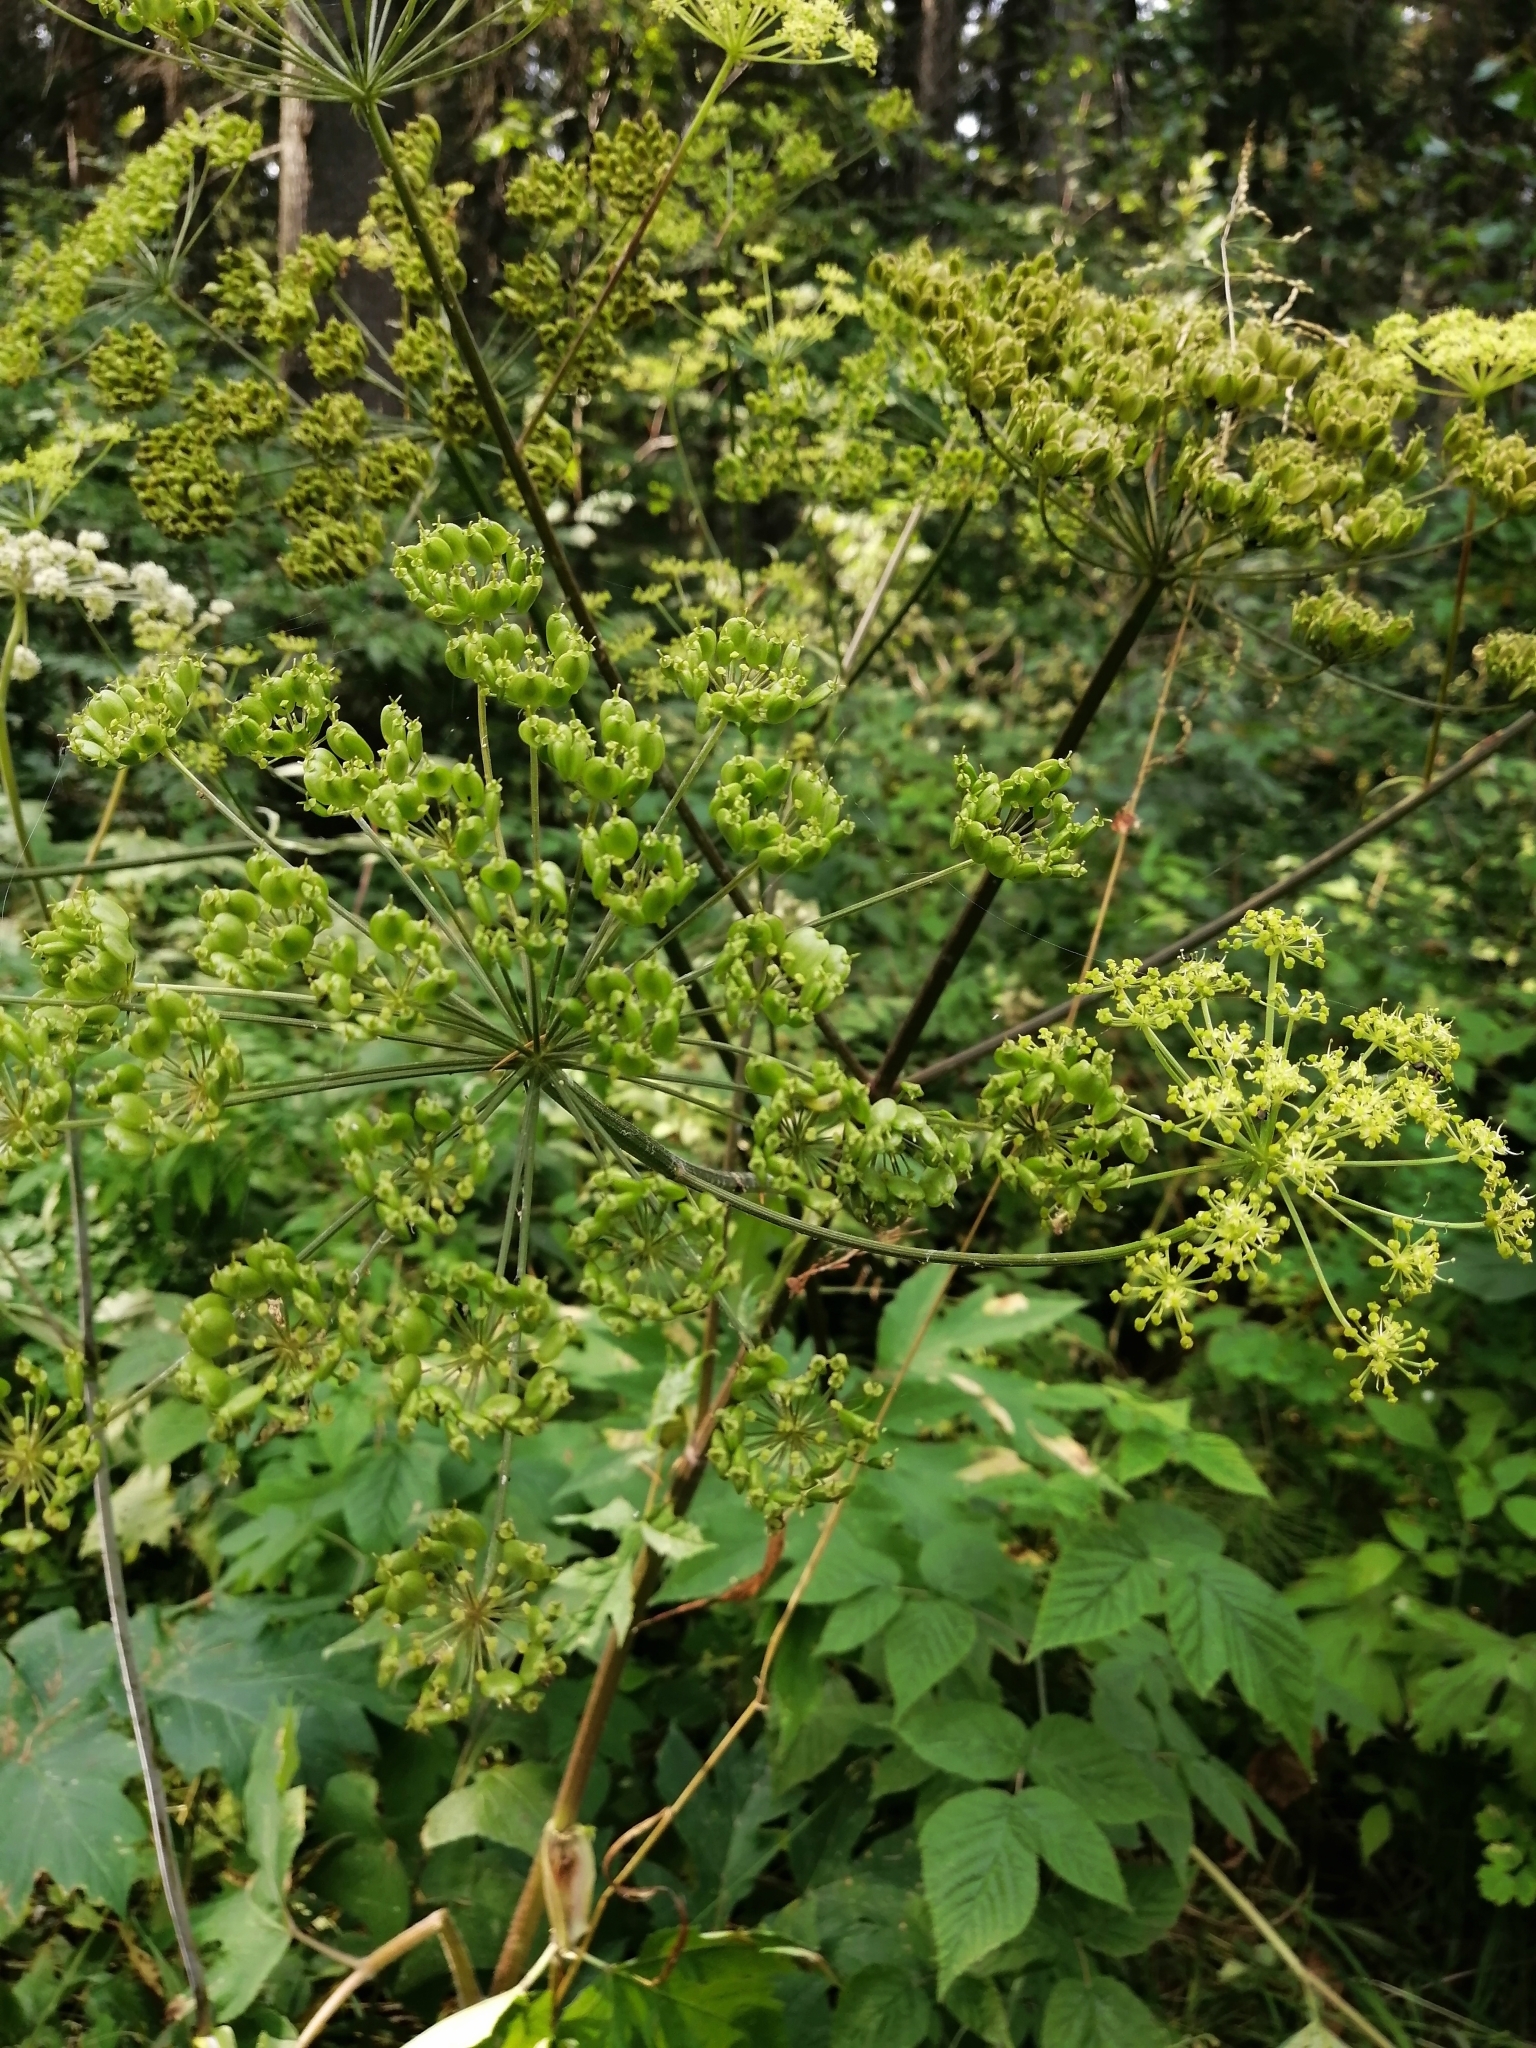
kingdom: Plantae
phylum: Tracheophyta
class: Magnoliopsida
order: Apiales
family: Apiaceae
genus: Heracleum
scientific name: Heracleum sphondylium
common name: Hogweed
